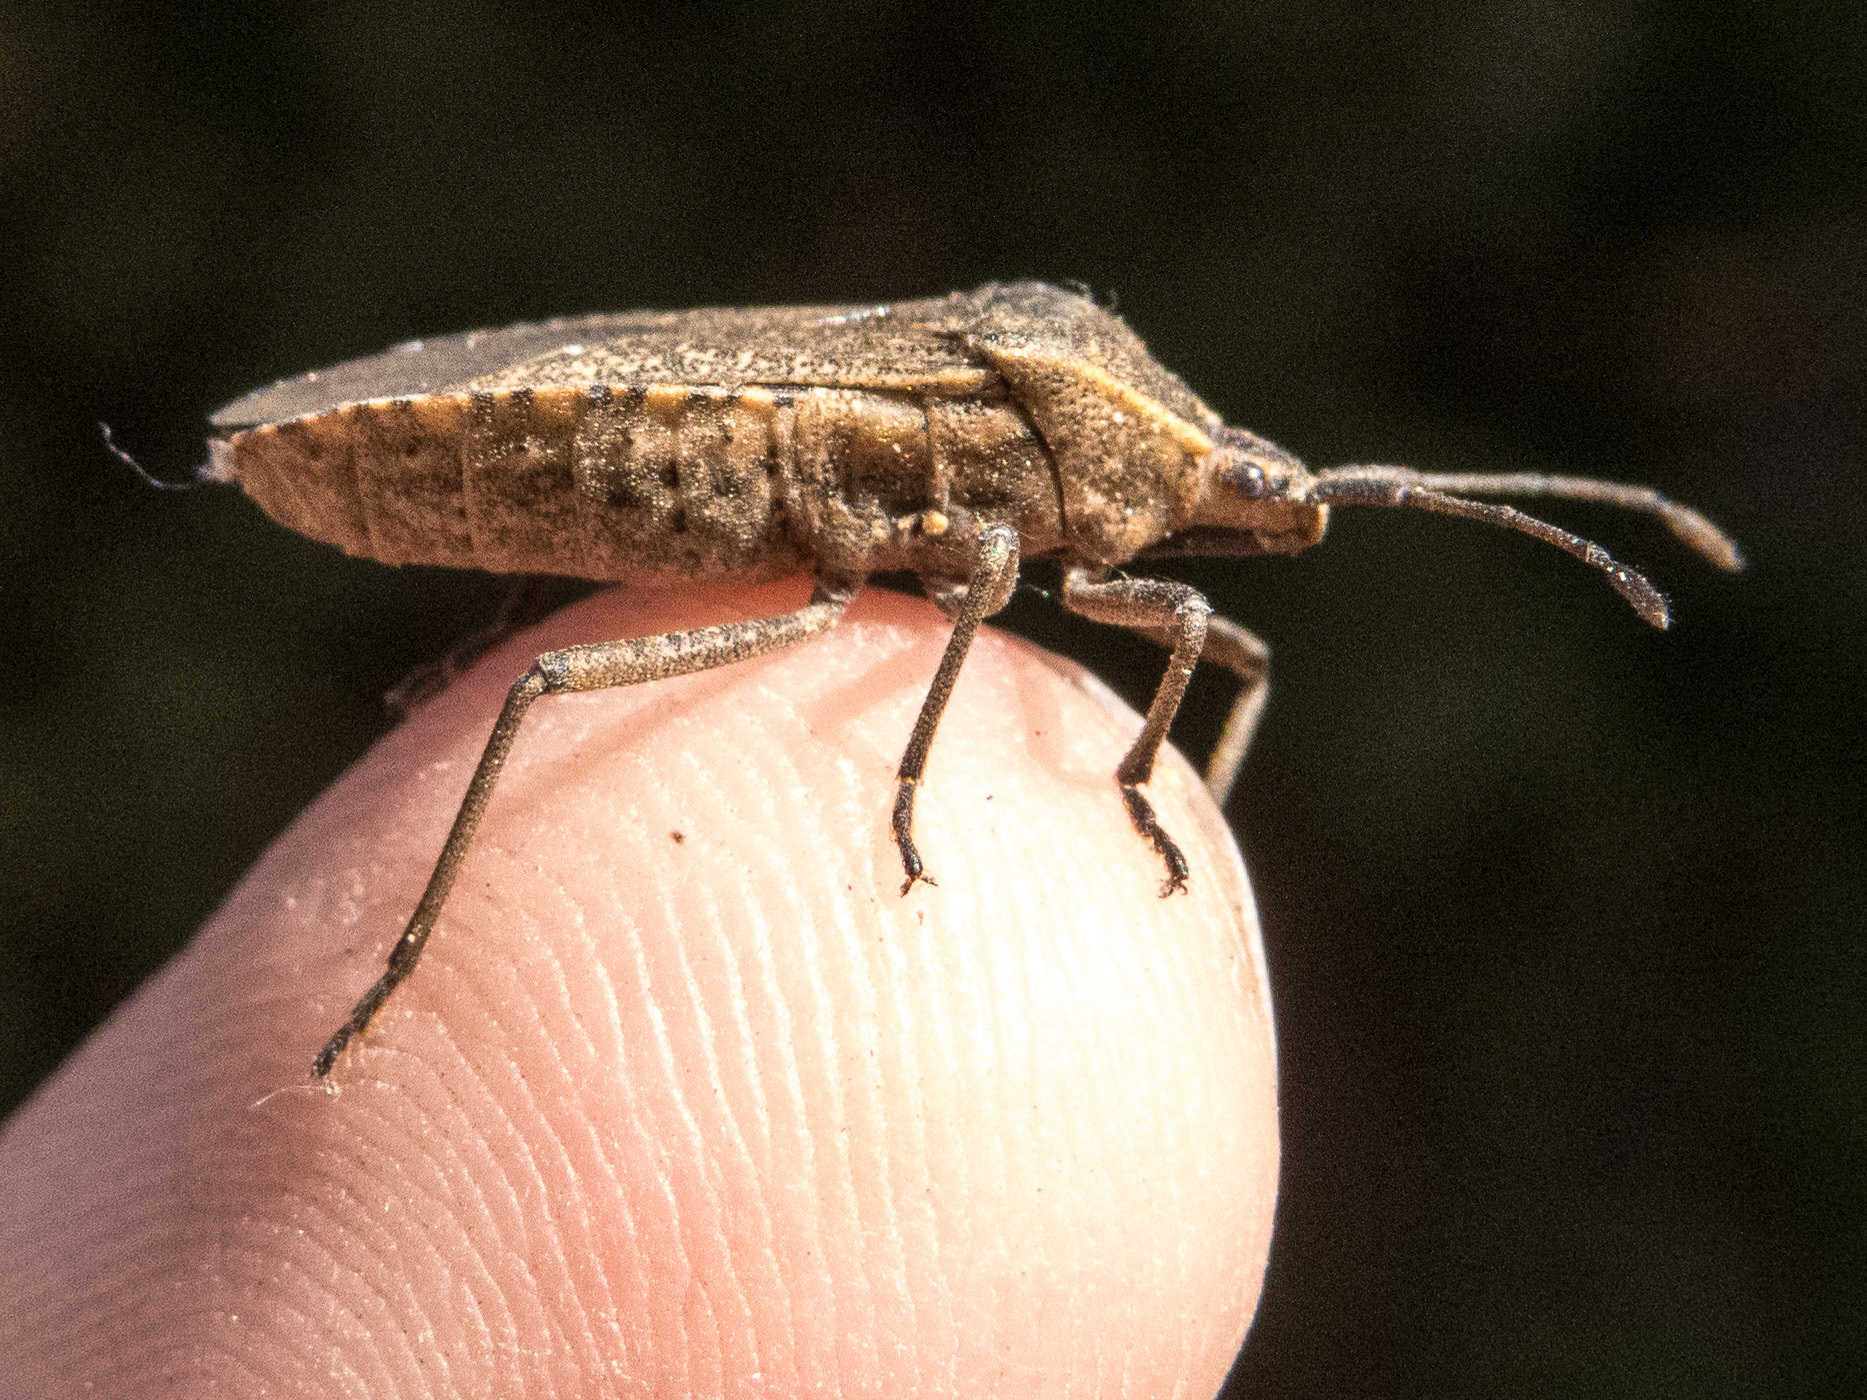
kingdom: Animalia
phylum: Arthropoda
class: Insecta
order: Hemiptera
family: Coreidae
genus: Anasa
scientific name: Anasa tristis
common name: Squash bug
